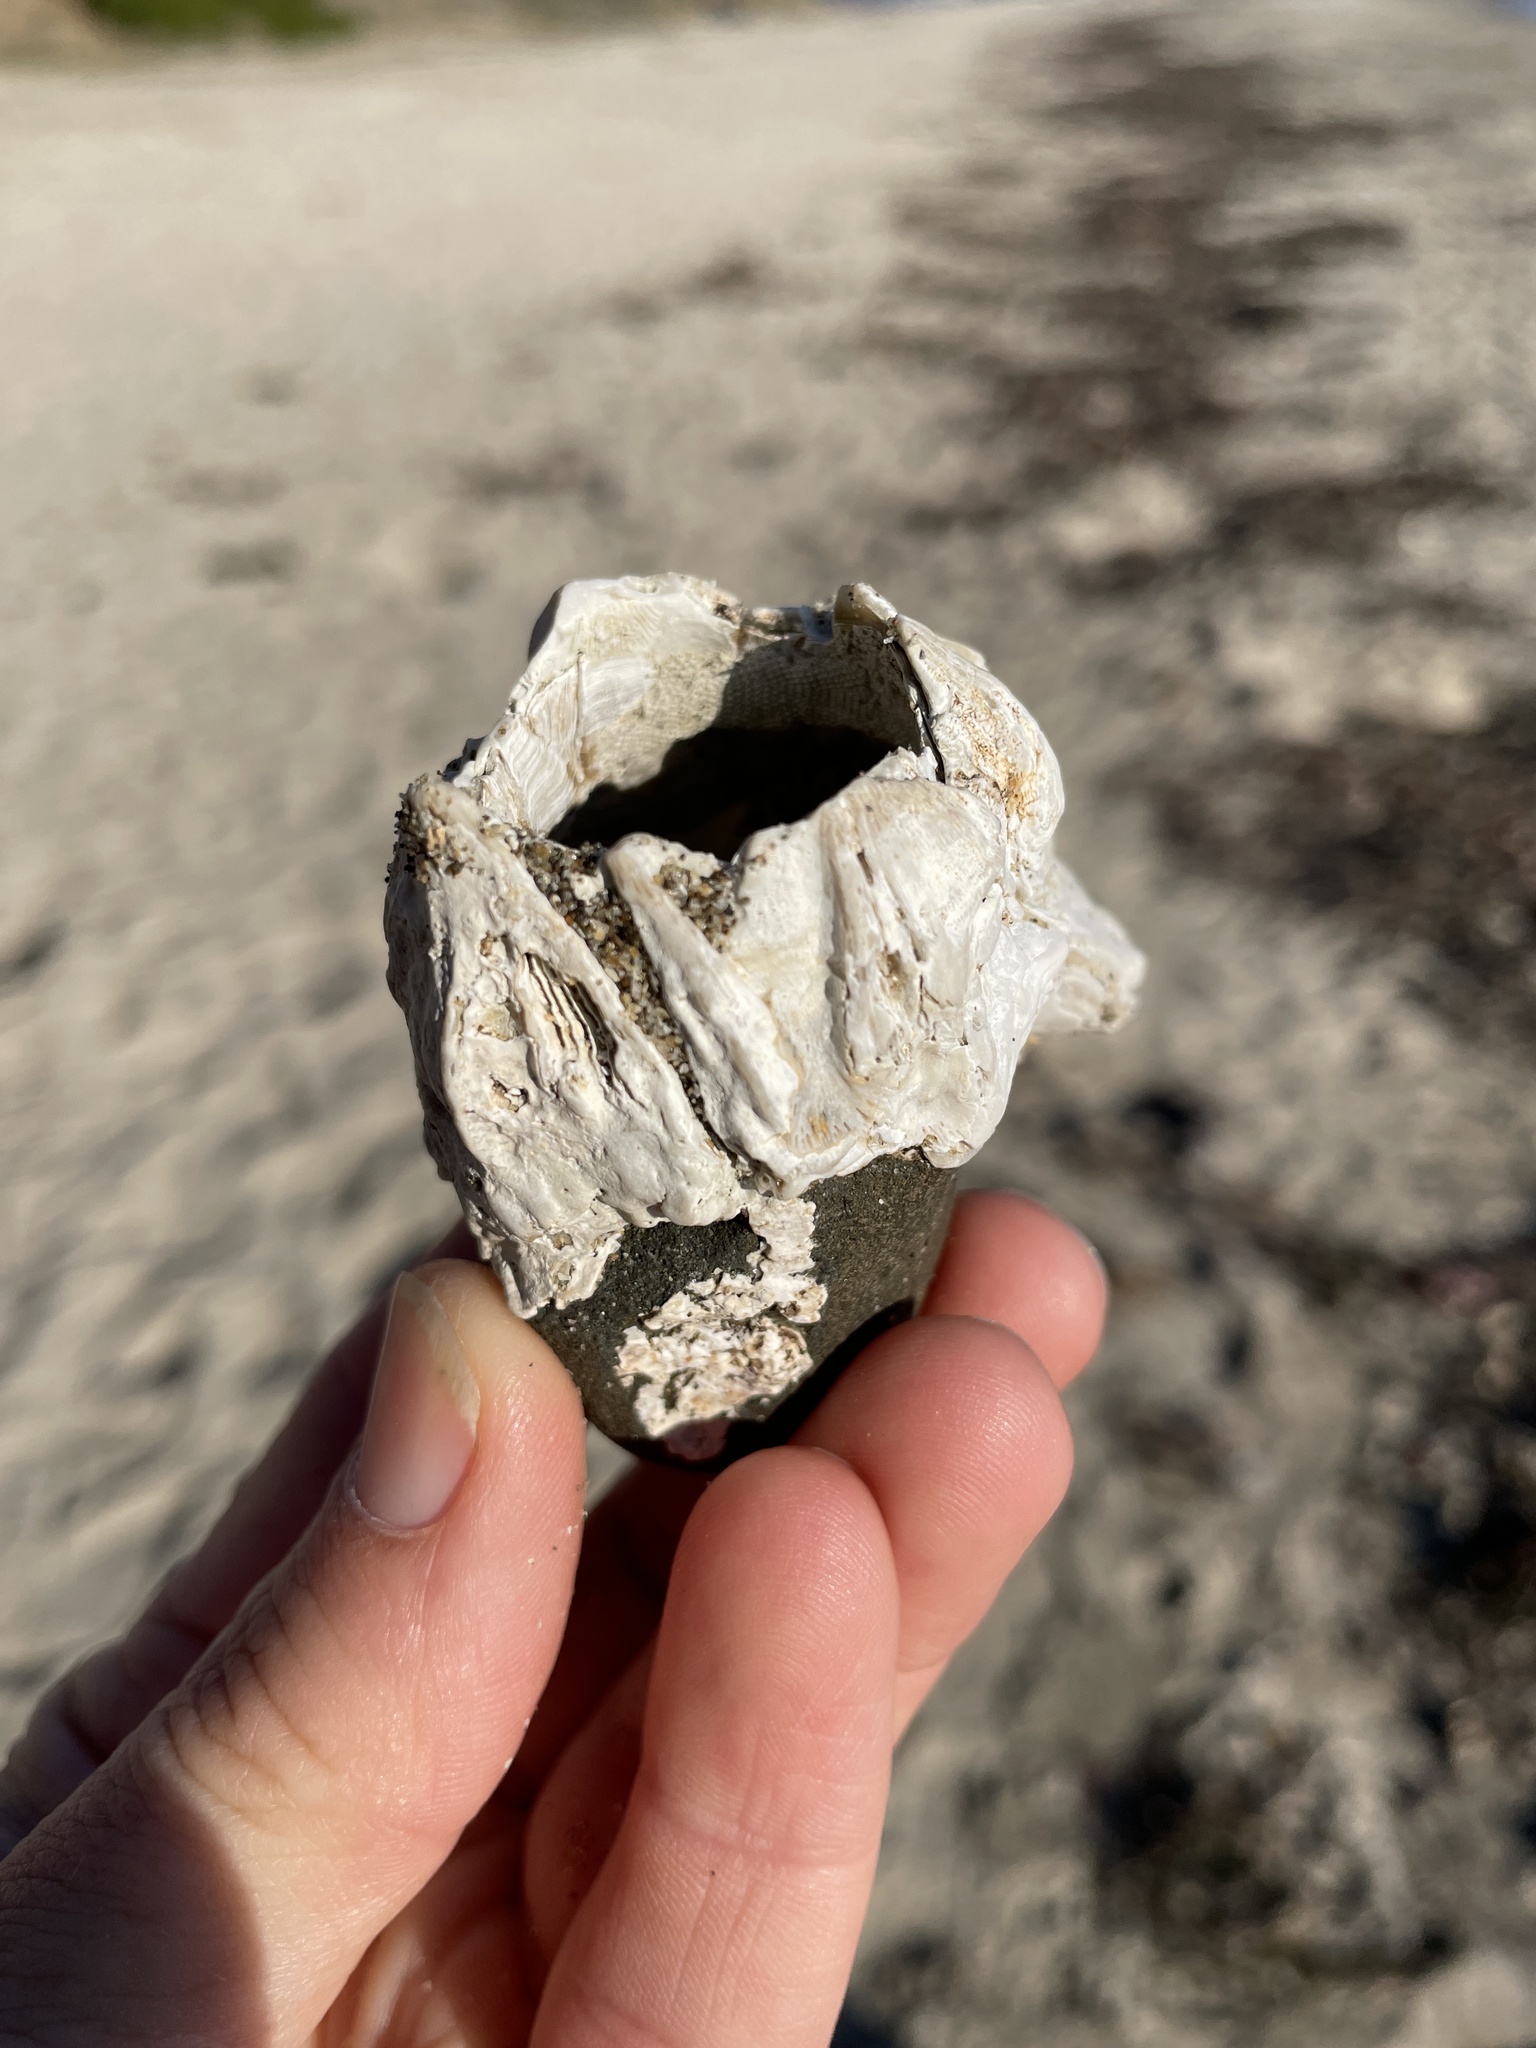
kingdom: Animalia
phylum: Arthropoda
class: Maxillopoda
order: Sessilia
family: Balanidae
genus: Balanus
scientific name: Balanus nubilus
